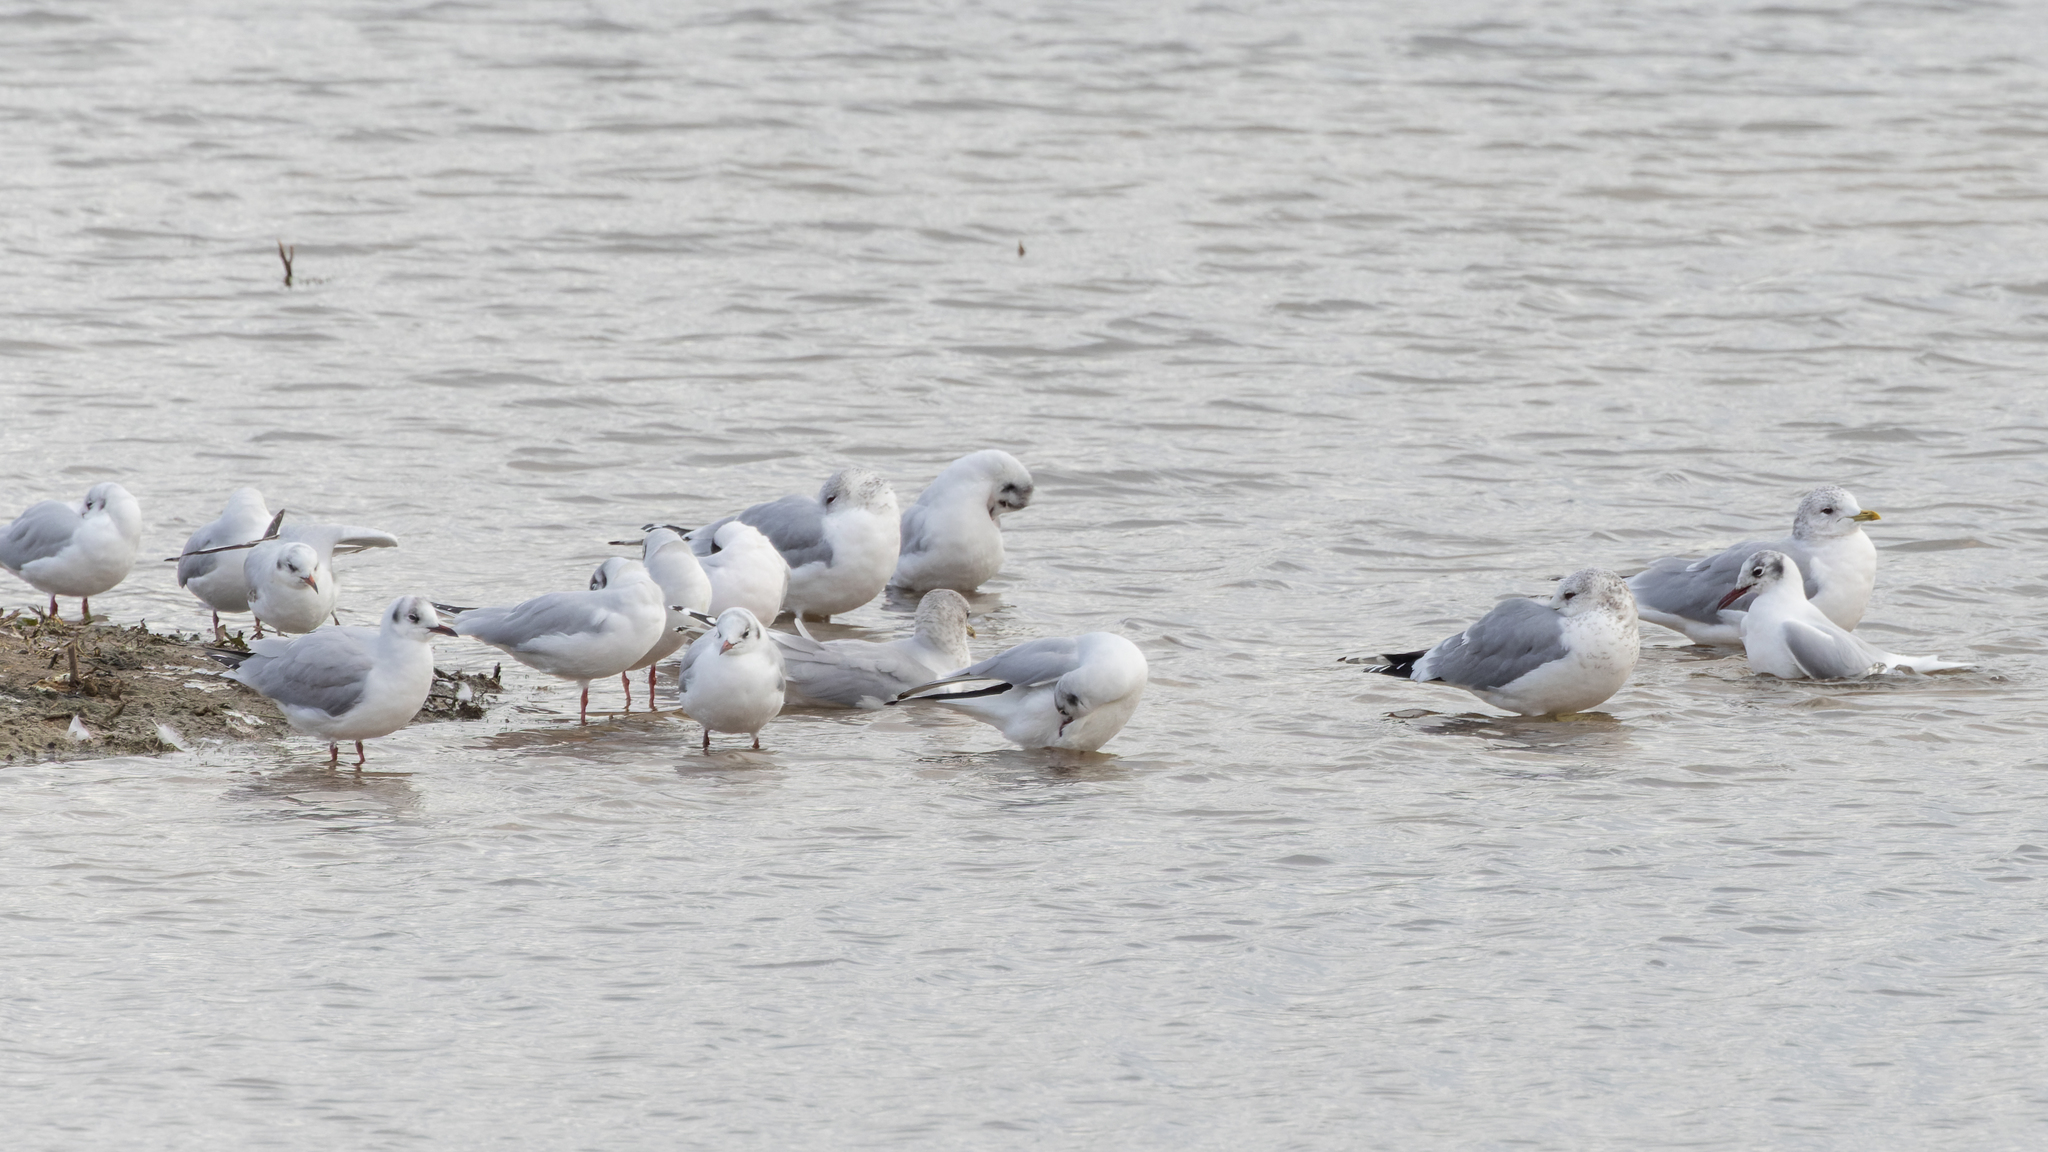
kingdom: Animalia
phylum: Chordata
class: Aves
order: Charadriiformes
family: Laridae
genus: Larus
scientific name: Larus canus
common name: Mew gull
